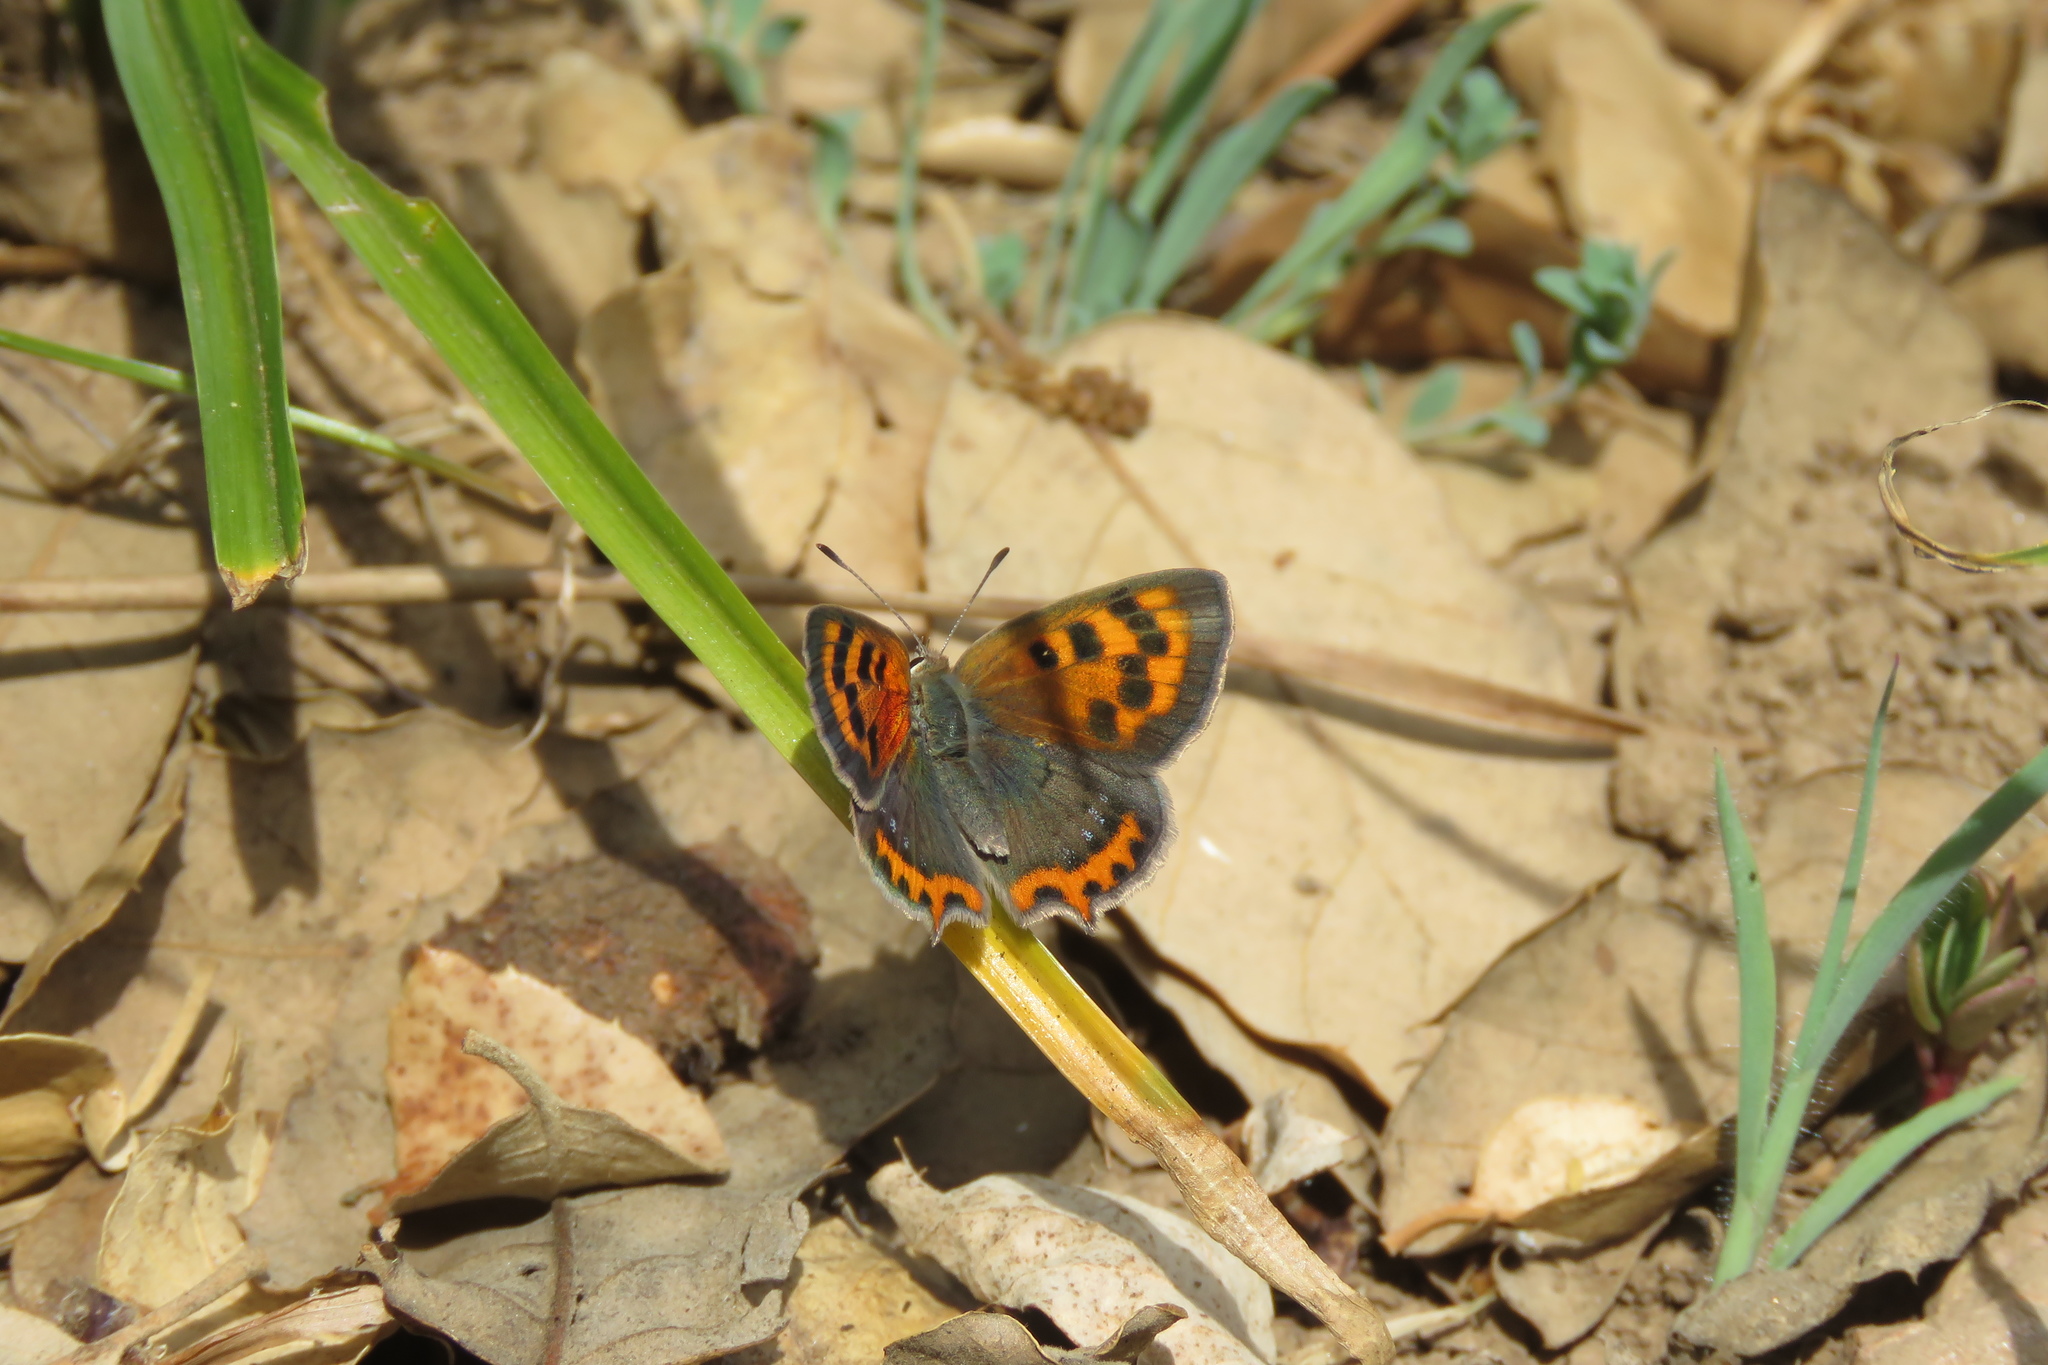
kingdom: Animalia
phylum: Arthropoda
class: Insecta
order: Lepidoptera
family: Lycaenidae
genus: Lycaena
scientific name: Lycaena phlaeas
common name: Small copper
